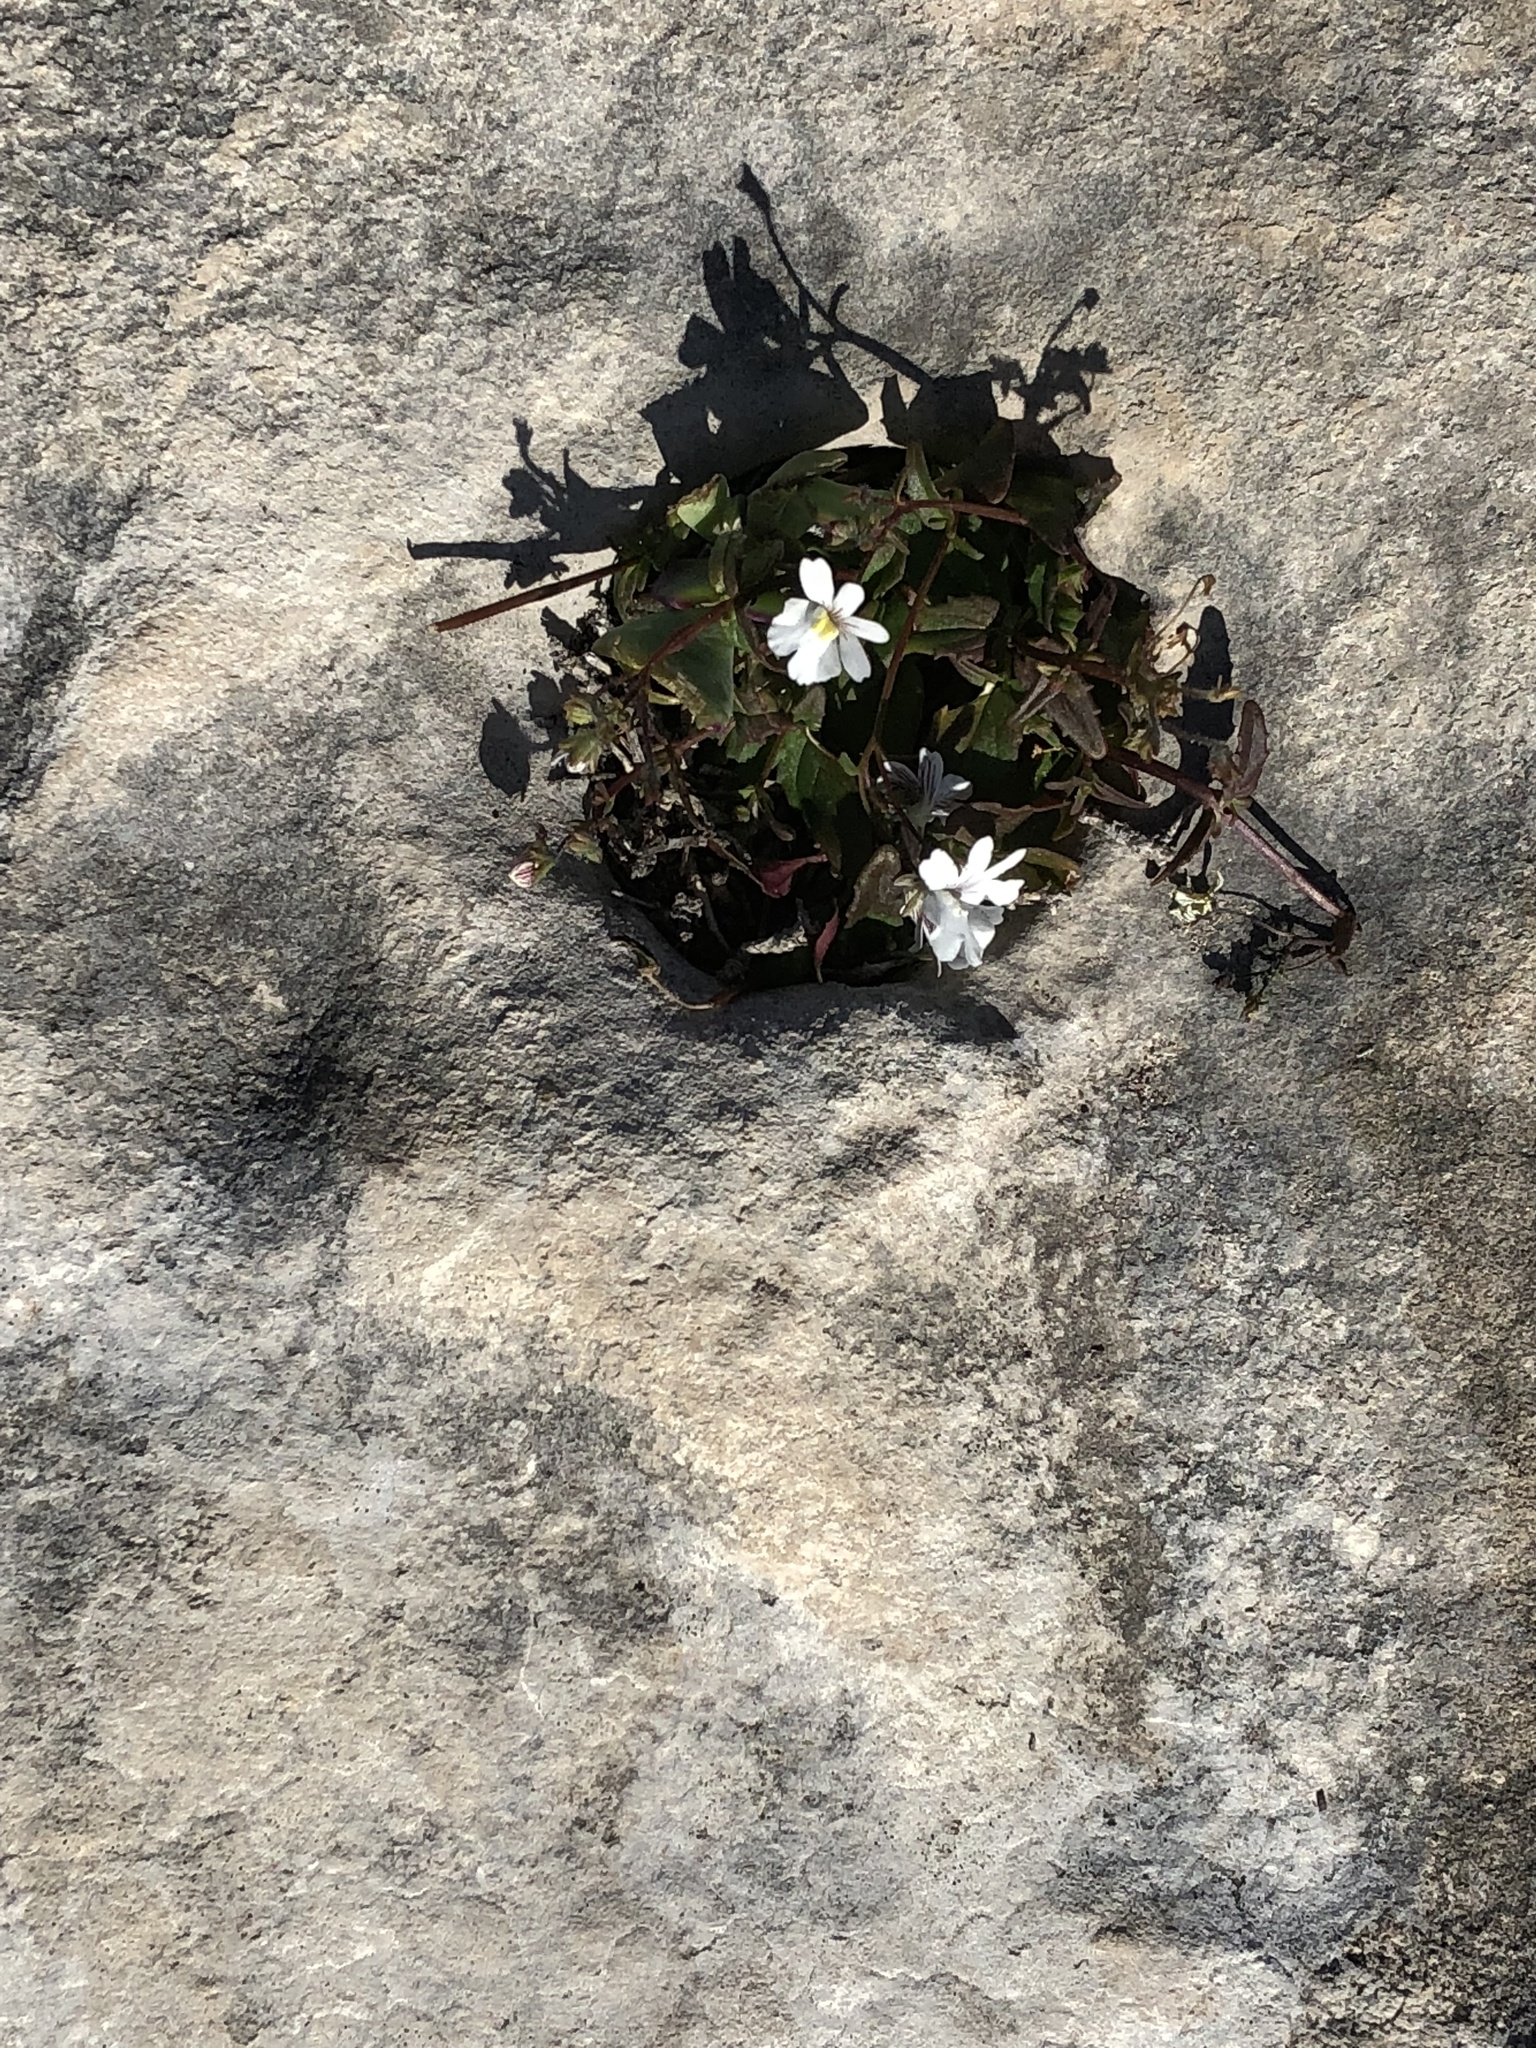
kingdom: Plantae
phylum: Tracheophyta
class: Magnoliopsida
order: Lamiales
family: Scrophulariaceae
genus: Nemesia
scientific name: Nemesia lucida
